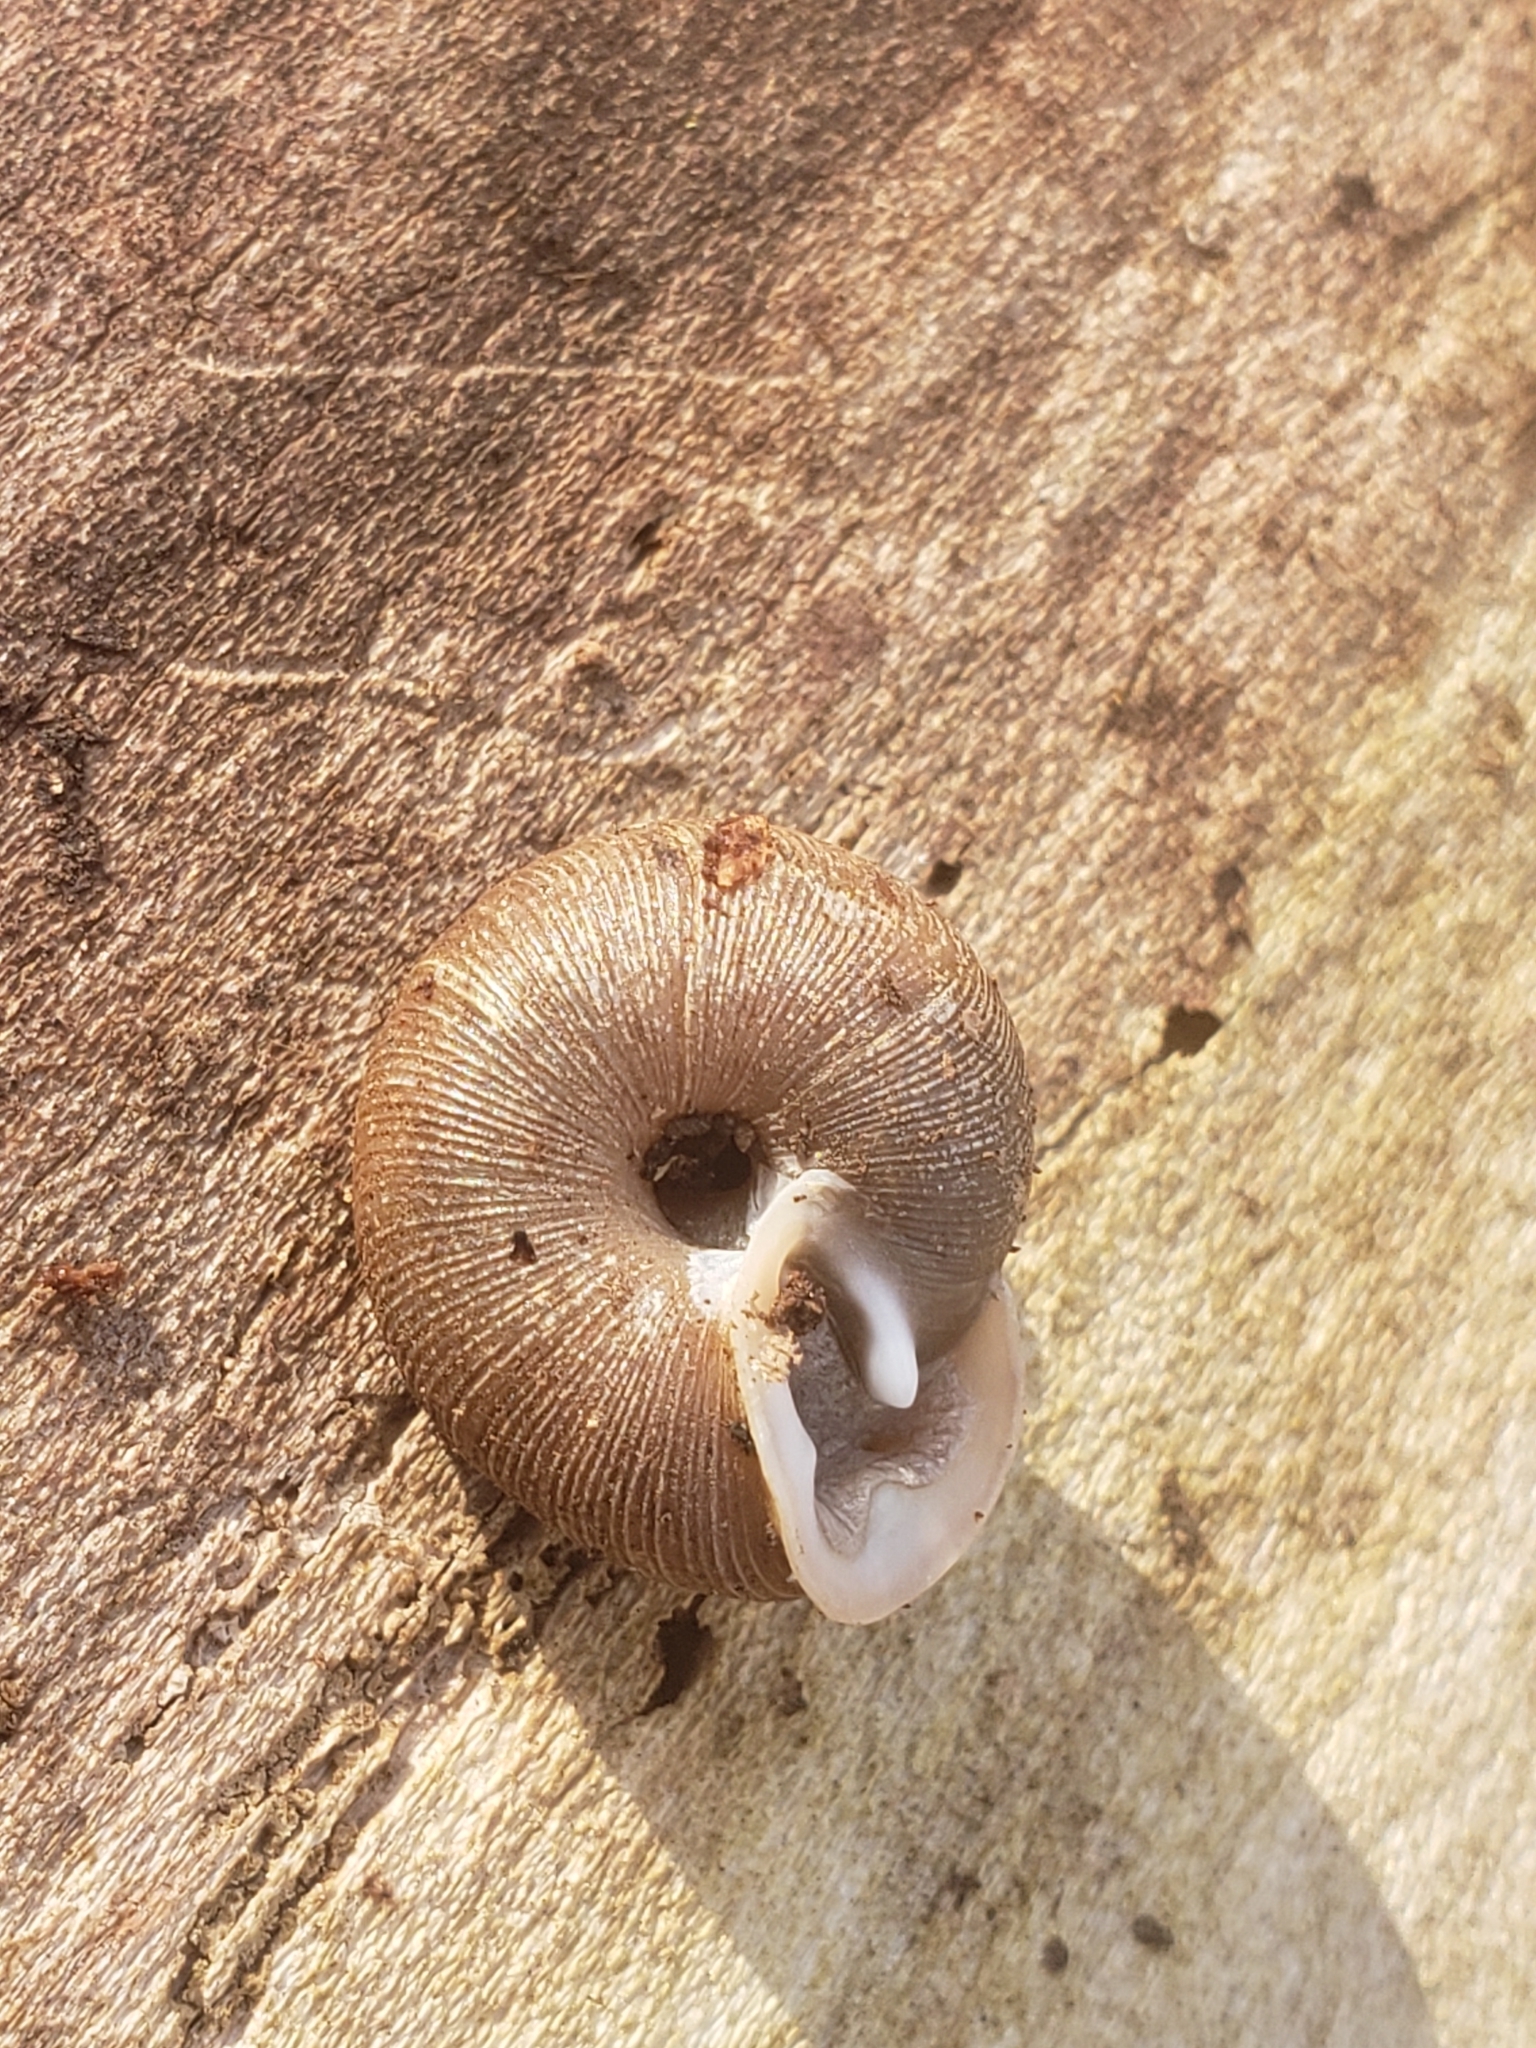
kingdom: Animalia
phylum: Mollusca
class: Gastropoda
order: Stylommatophora
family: Polygyridae
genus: Triodopsis
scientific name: Triodopsis juxtidens
